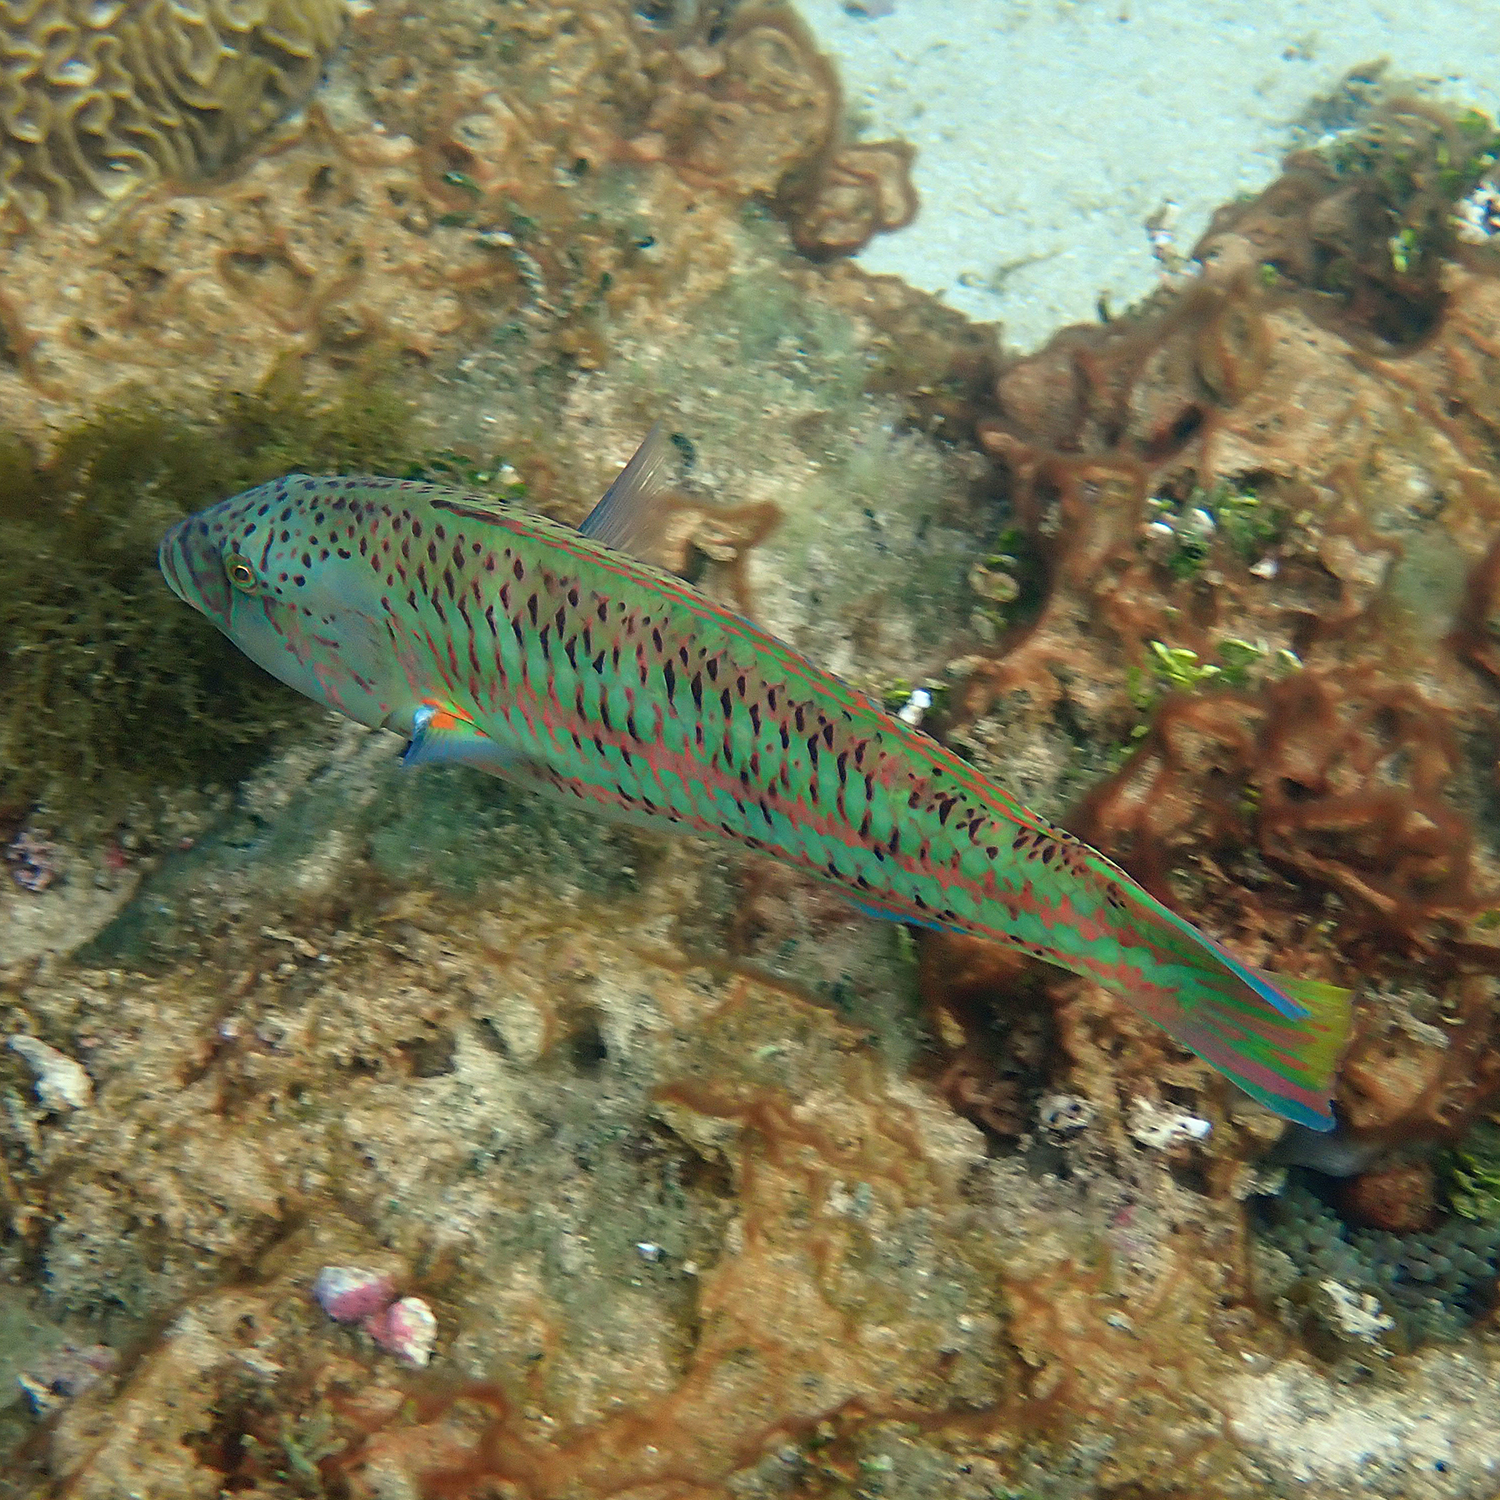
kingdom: Animalia
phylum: Chordata
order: Perciformes
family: Labridae
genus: Thalassoma
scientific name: Thalassoma purpureum
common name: Parrotfish
